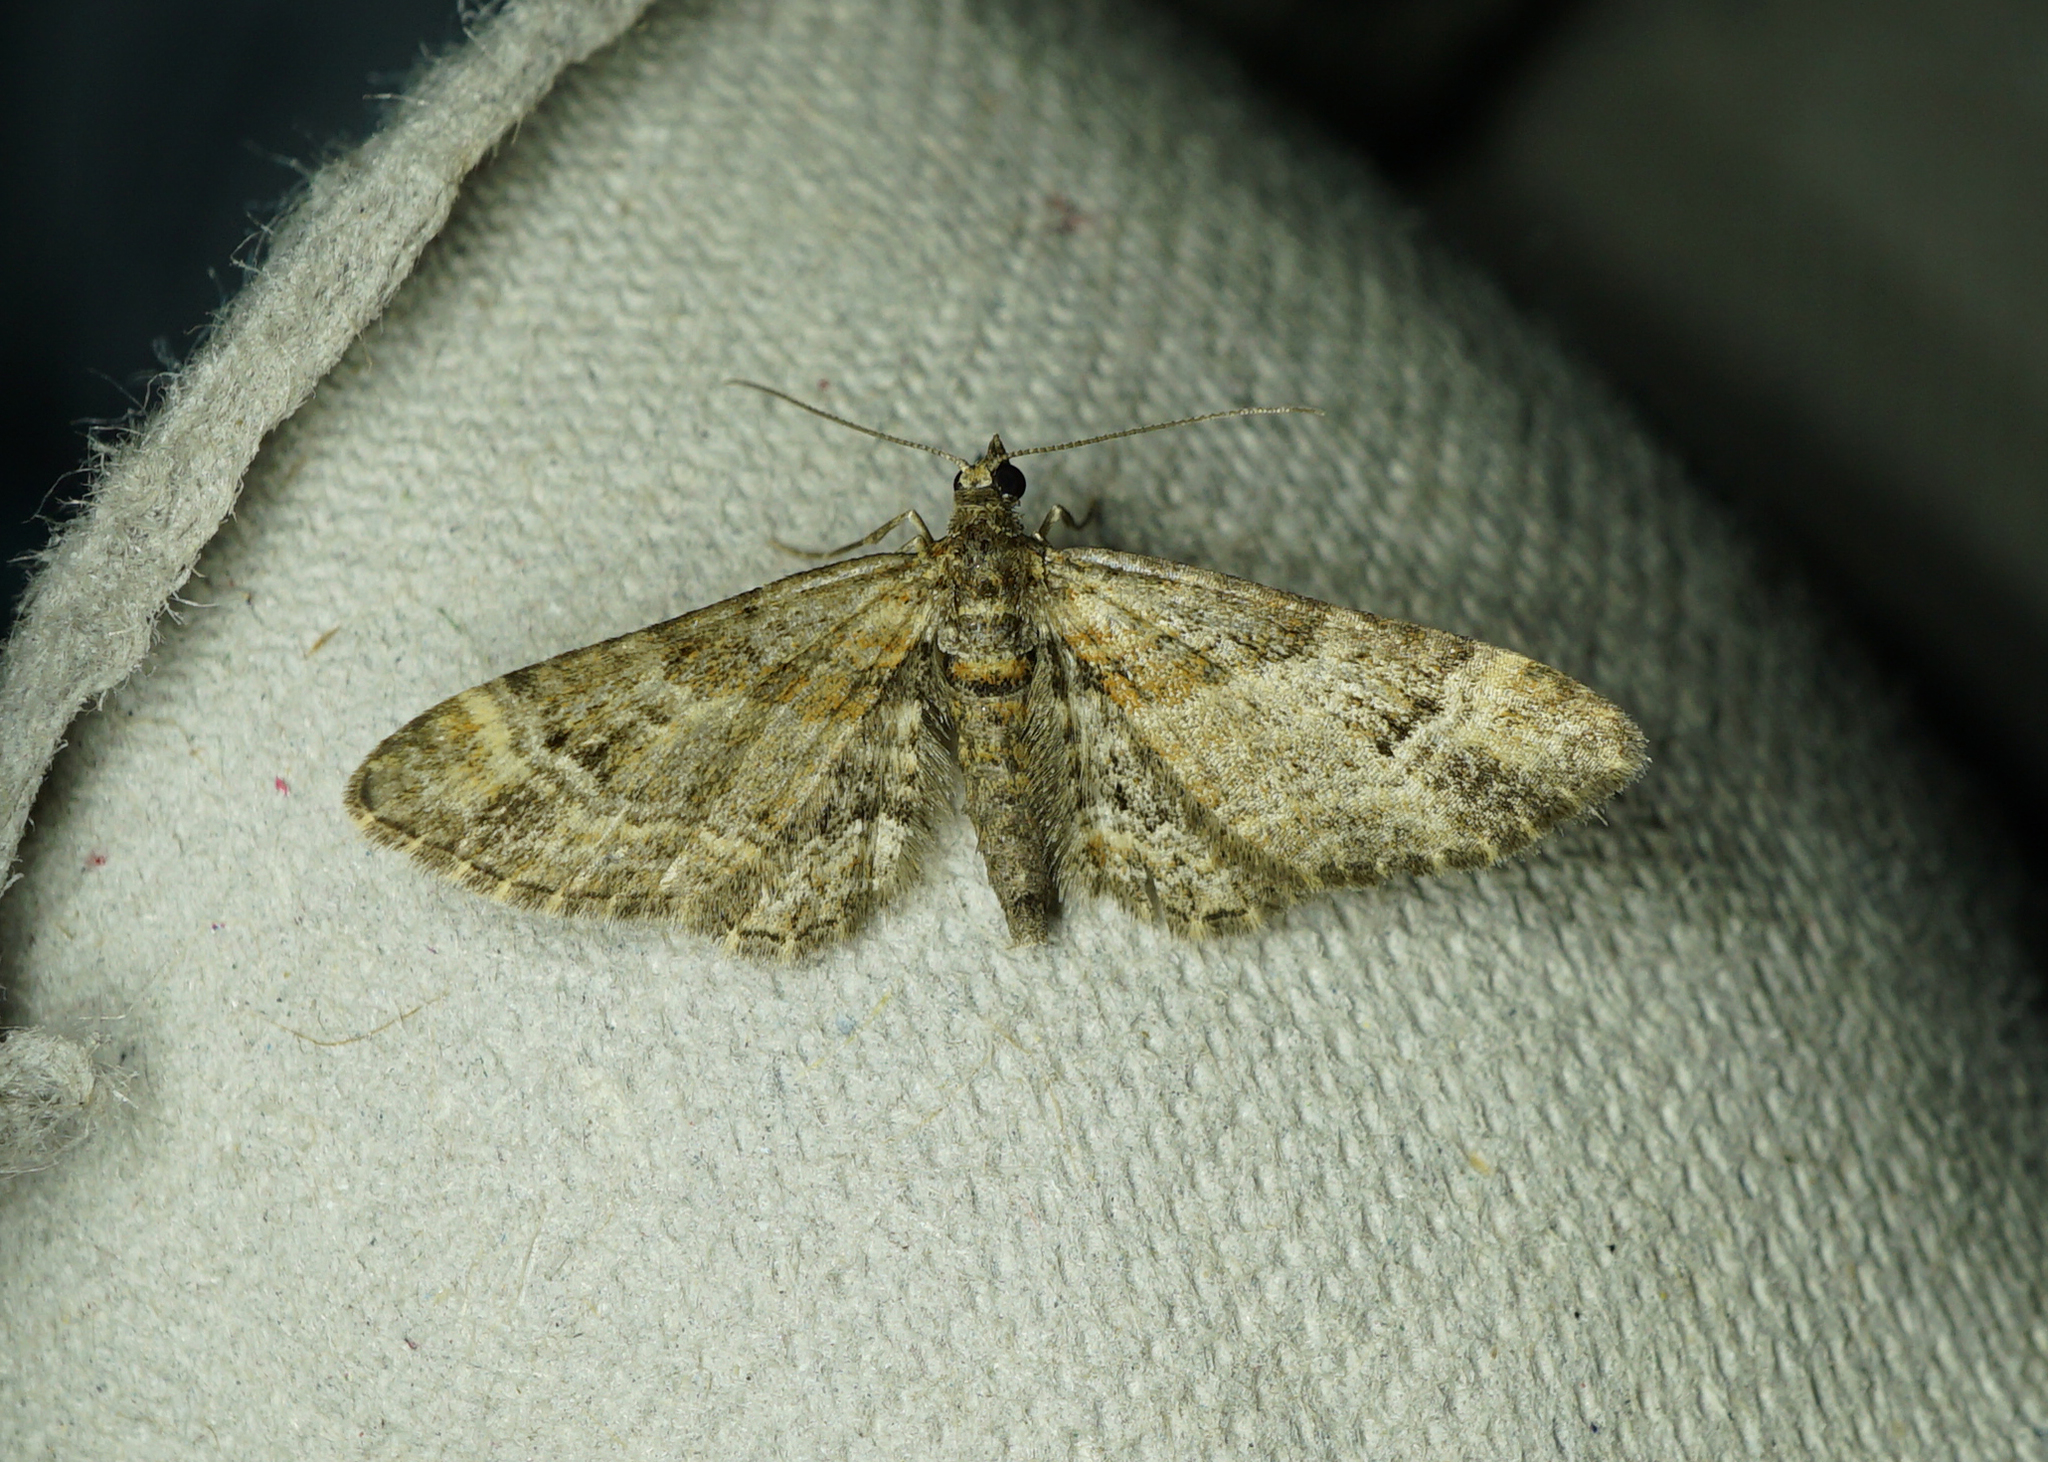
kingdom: Animalia
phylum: Arthropoda
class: Insecta
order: Lepidoptera
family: Geometridae
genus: Gymnoscelis
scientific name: Gymnoscelis rufifasciata
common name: Double-striped pug
